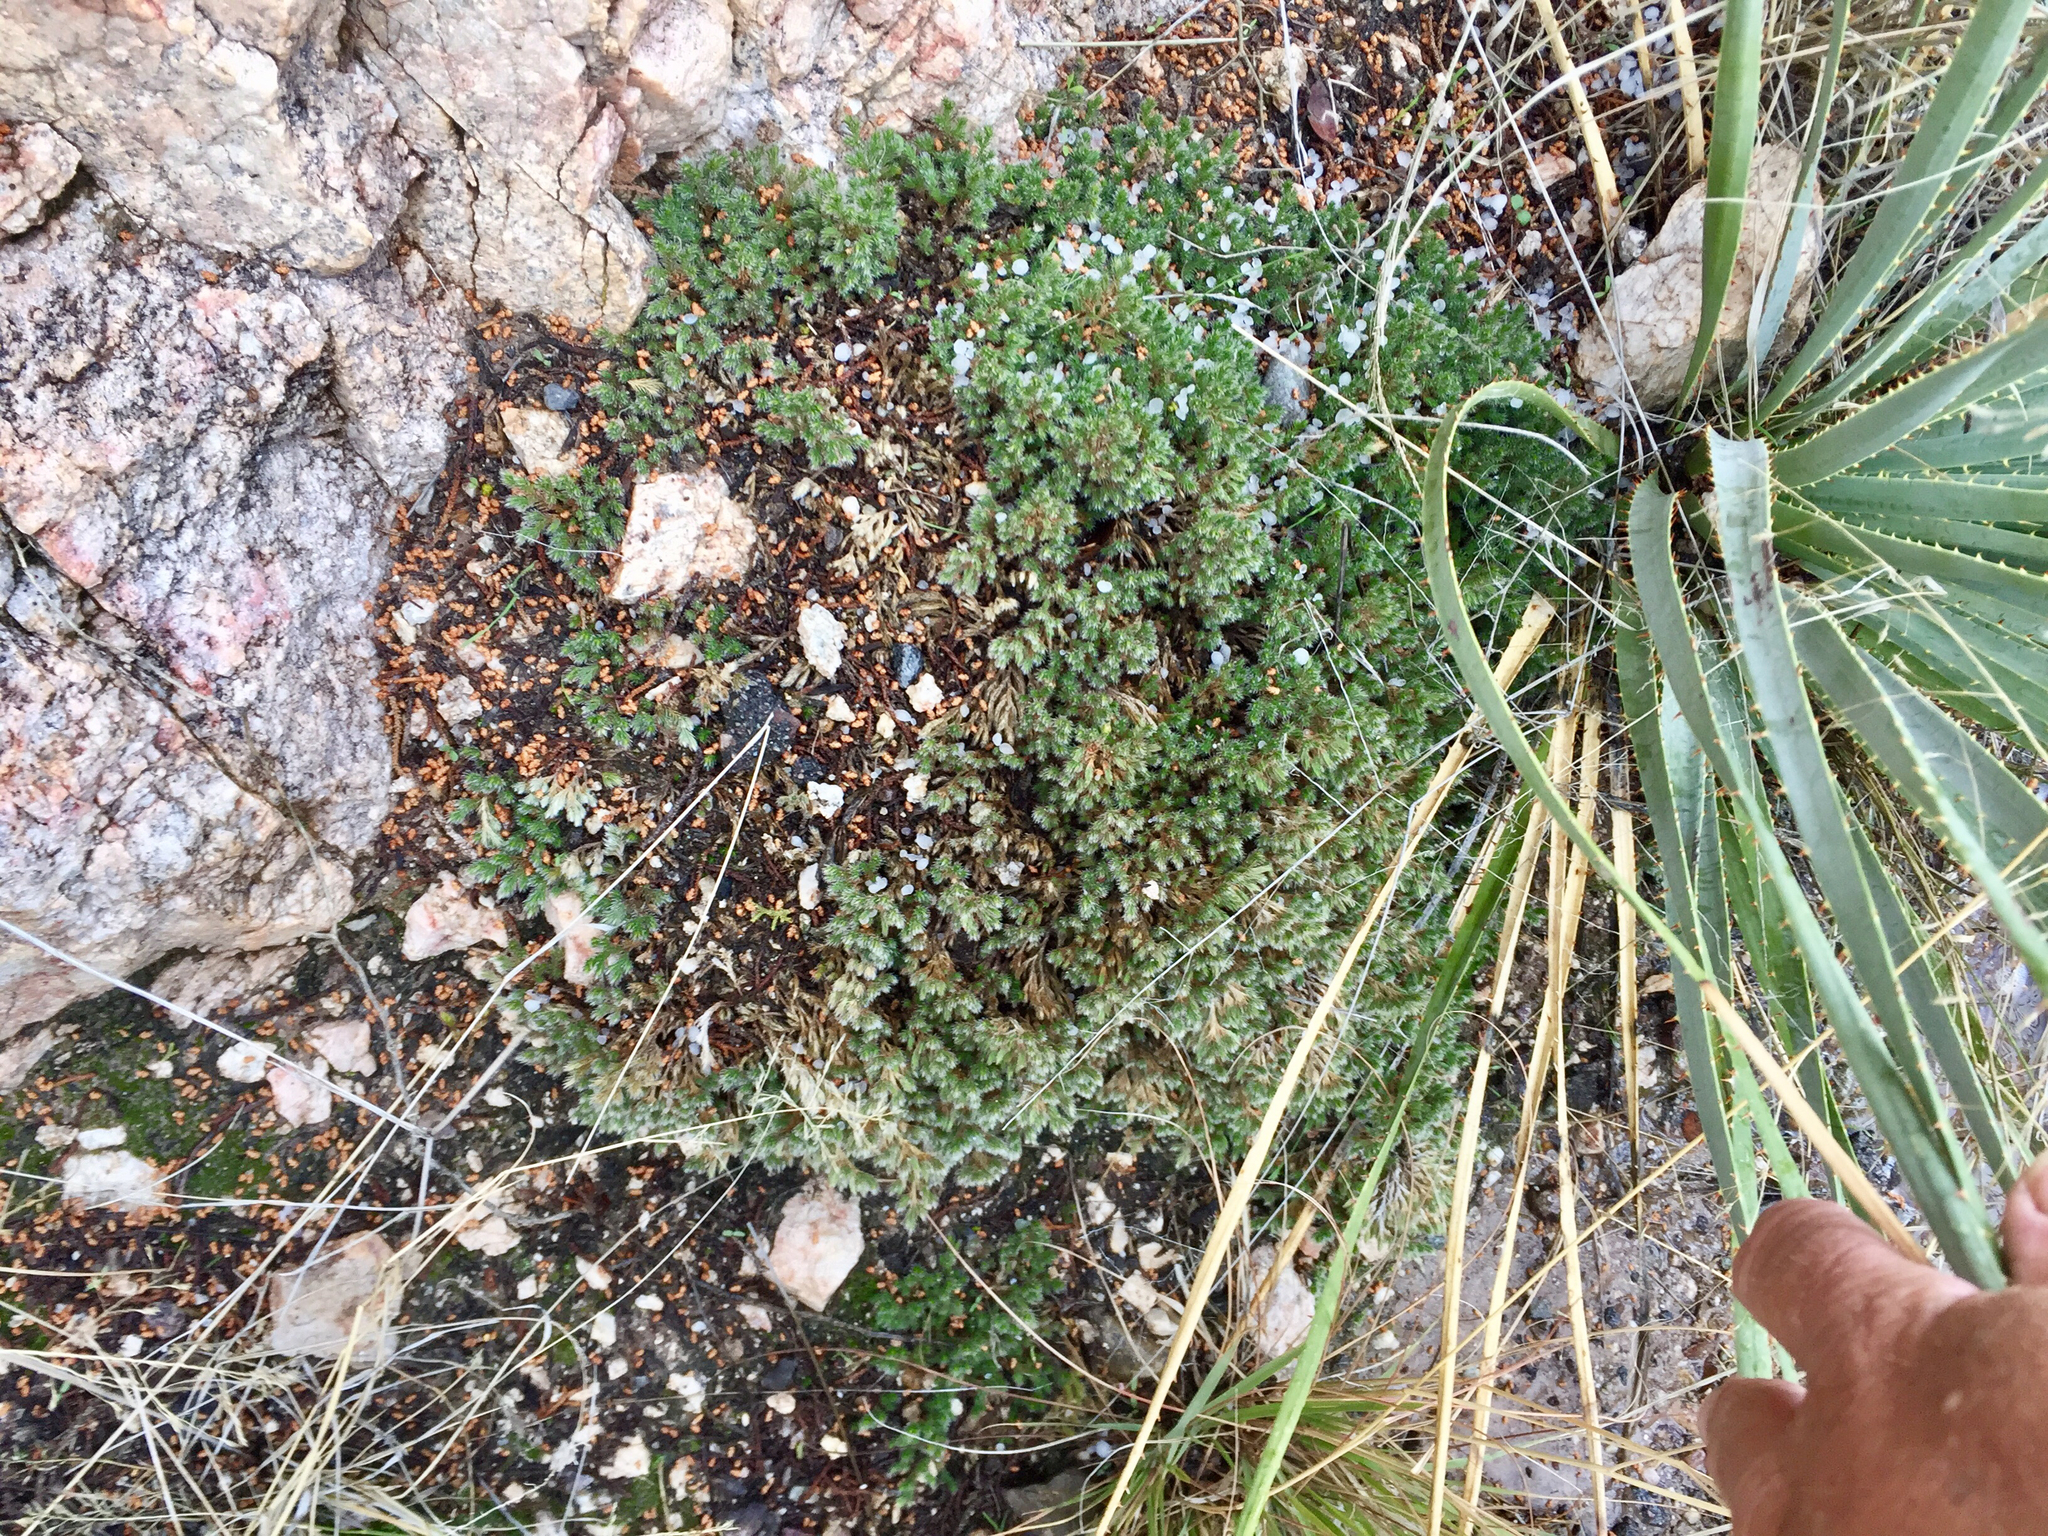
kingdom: Plantae
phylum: Tracheophyta
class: Lycopodiopsida
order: Selaginellales
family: Selaginellaceae
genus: Selaginella
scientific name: Selaginella rupincola
